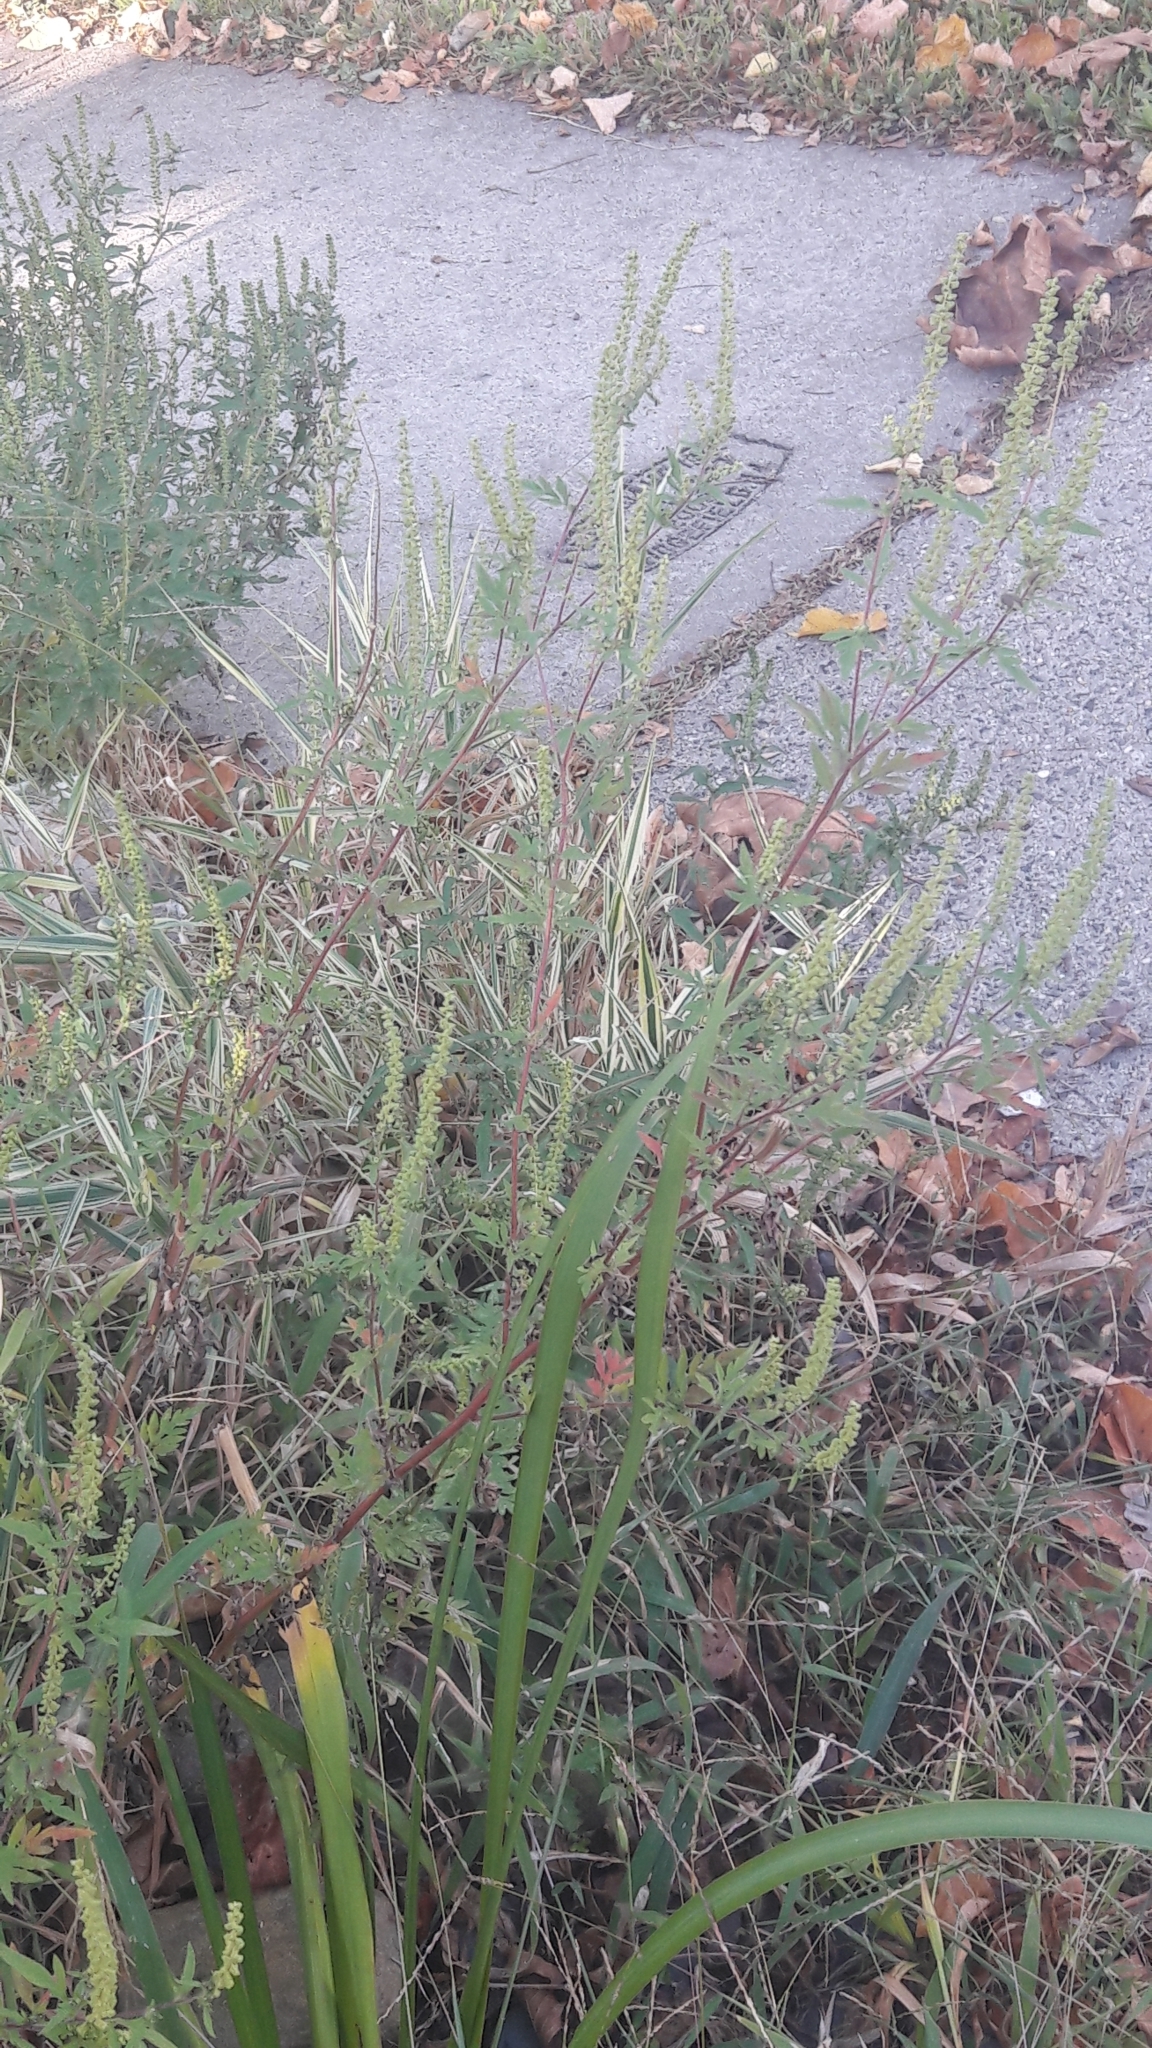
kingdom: Plantae
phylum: Tracheophyta
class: Magnoliopsida
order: Asterales
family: Asteraceae
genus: Ambrosia
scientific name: Ambrosia artemisiifolia
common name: Annual ragweed
